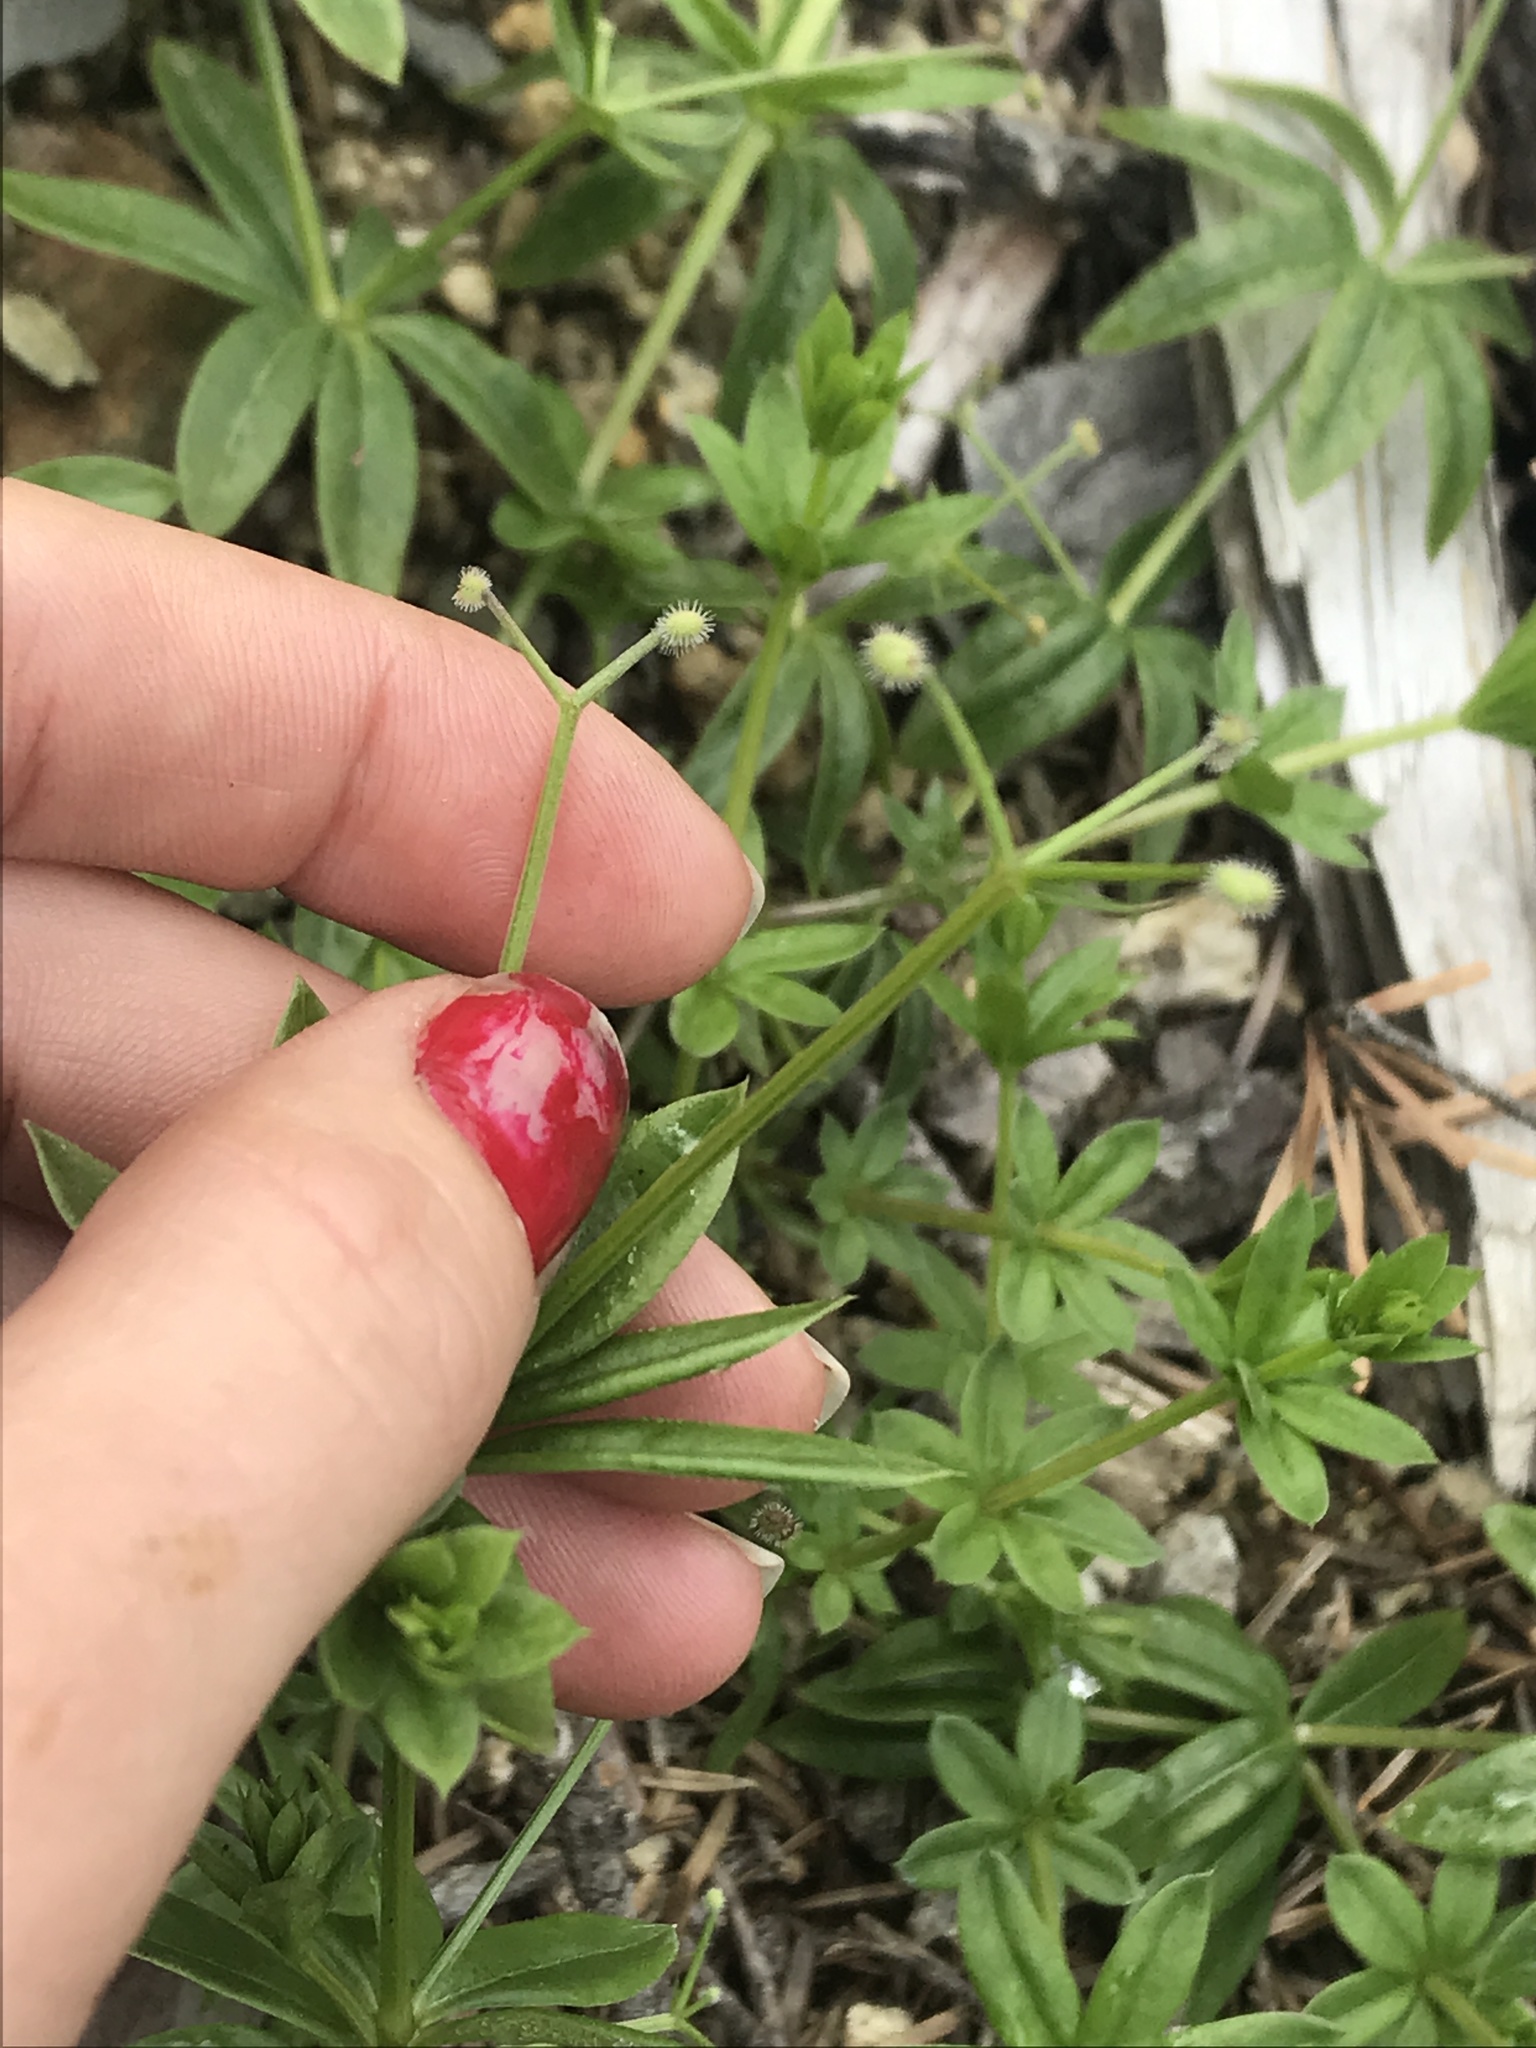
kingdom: Plantae
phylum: Tracheophyta
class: Magnoliopsida
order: Gentianales
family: Rubiaceae
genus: Galium
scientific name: Galium triflorum
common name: Fragrant bedstraw
